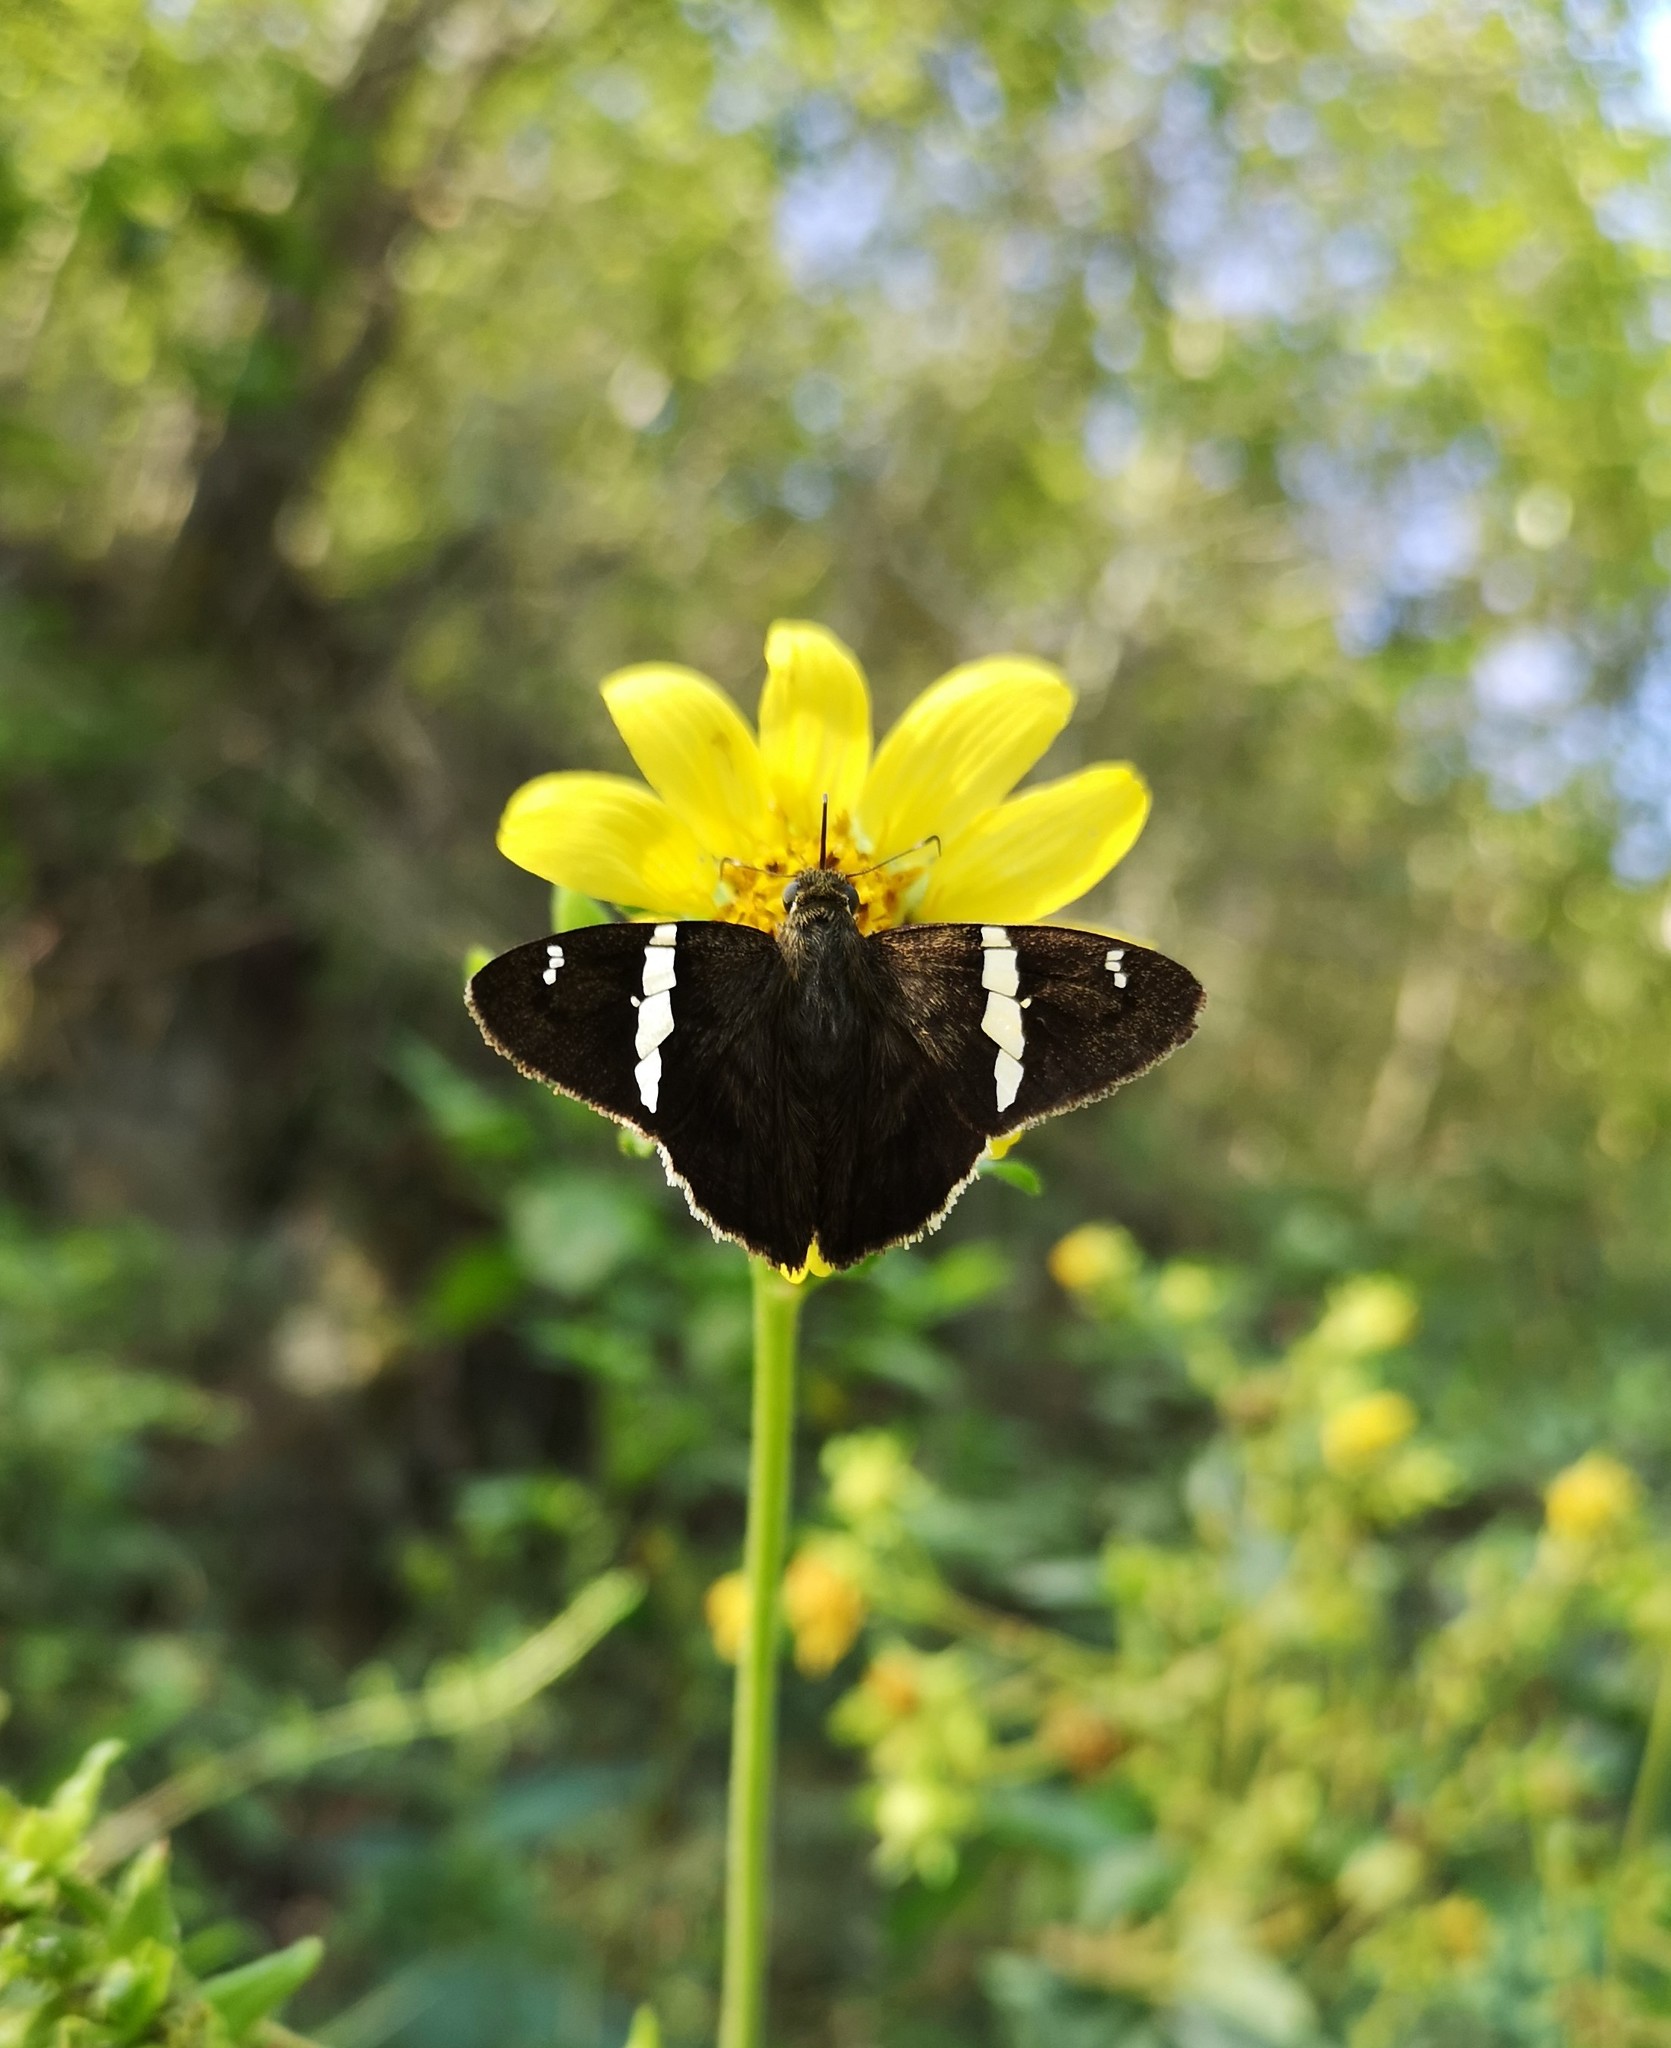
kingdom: Animalia
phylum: Arthropoda
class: Insecta
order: Lepidoptera
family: Hesperiidae
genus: Autochton
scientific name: Autochton neis
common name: Broad-banded skipper
